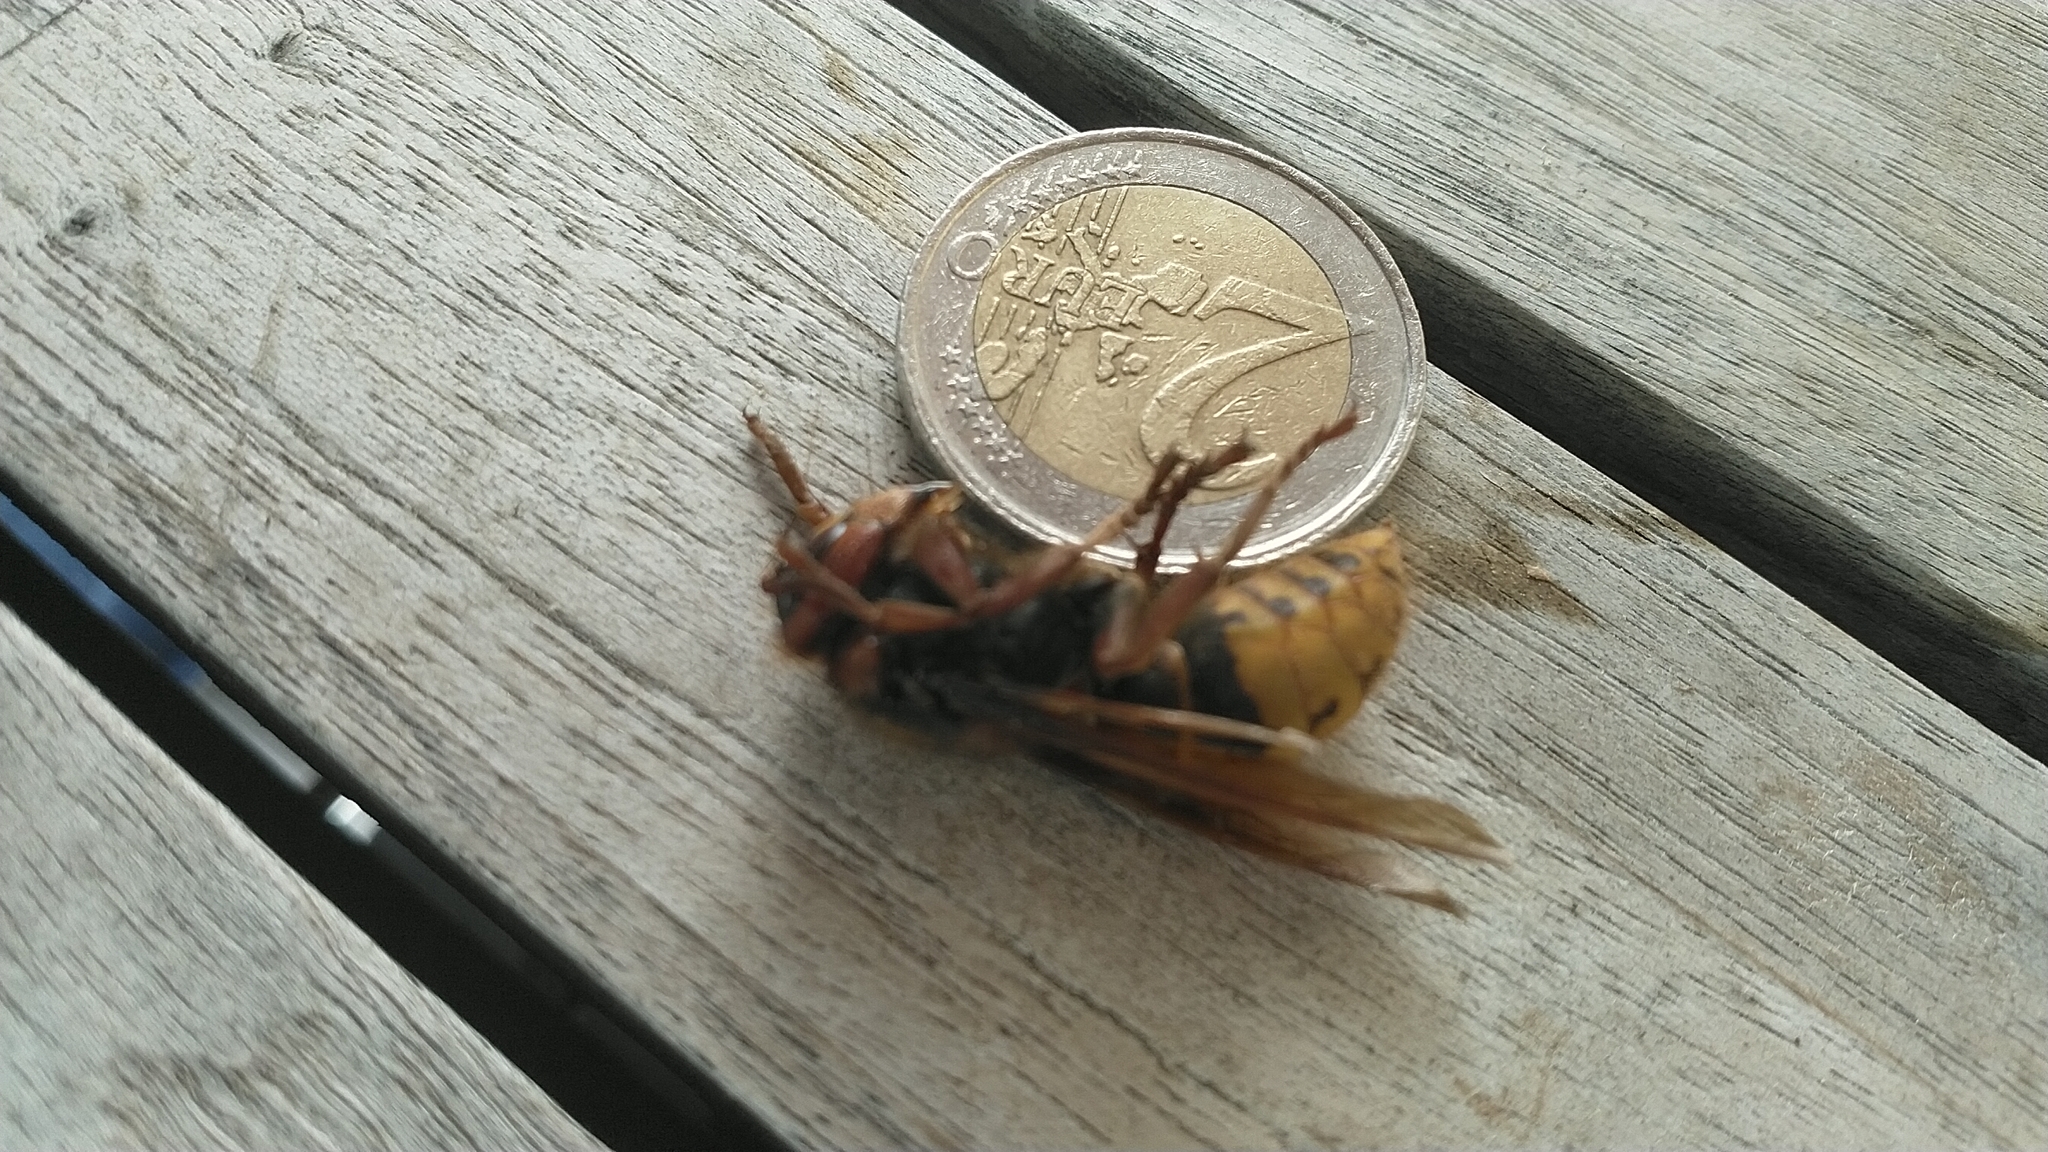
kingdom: Animalia
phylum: Arthropoda
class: Insecta
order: Hymenoptera
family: Vespidae
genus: Vespa
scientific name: Vespa crabro
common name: Hornet
